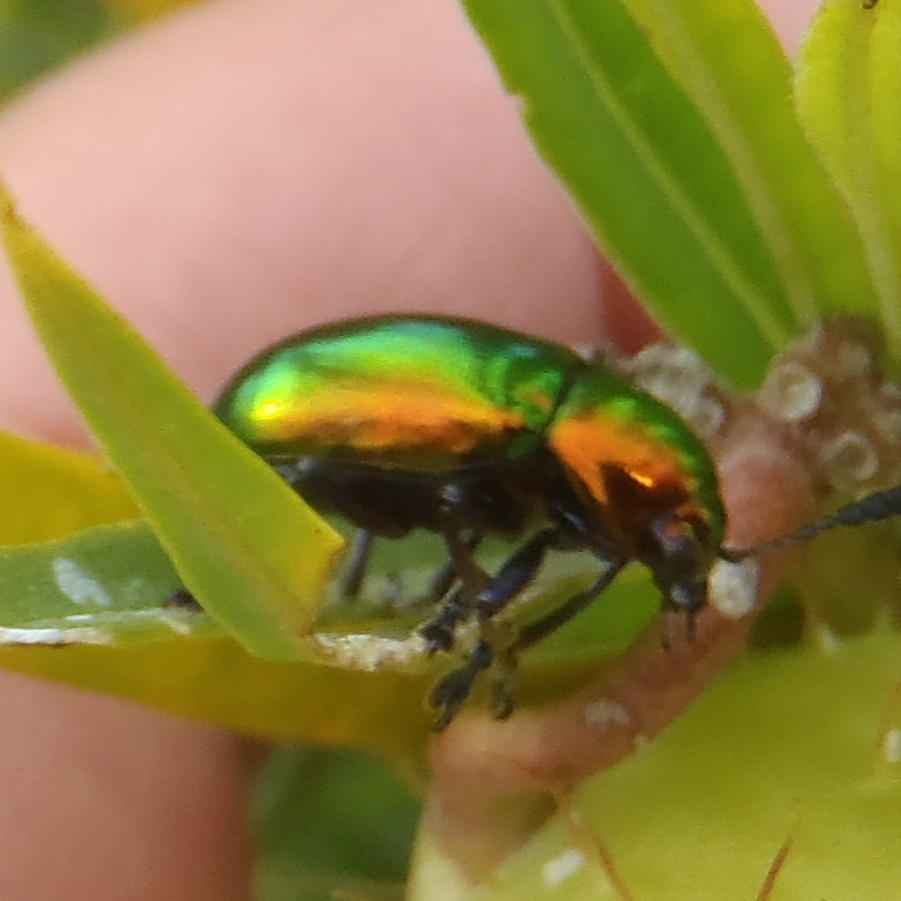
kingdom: Animalia
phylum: Arthropoda
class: Insecta
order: Coleoptera
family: Chrysomelidae
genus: Platycorynus
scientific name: Platycorynus dejeani
